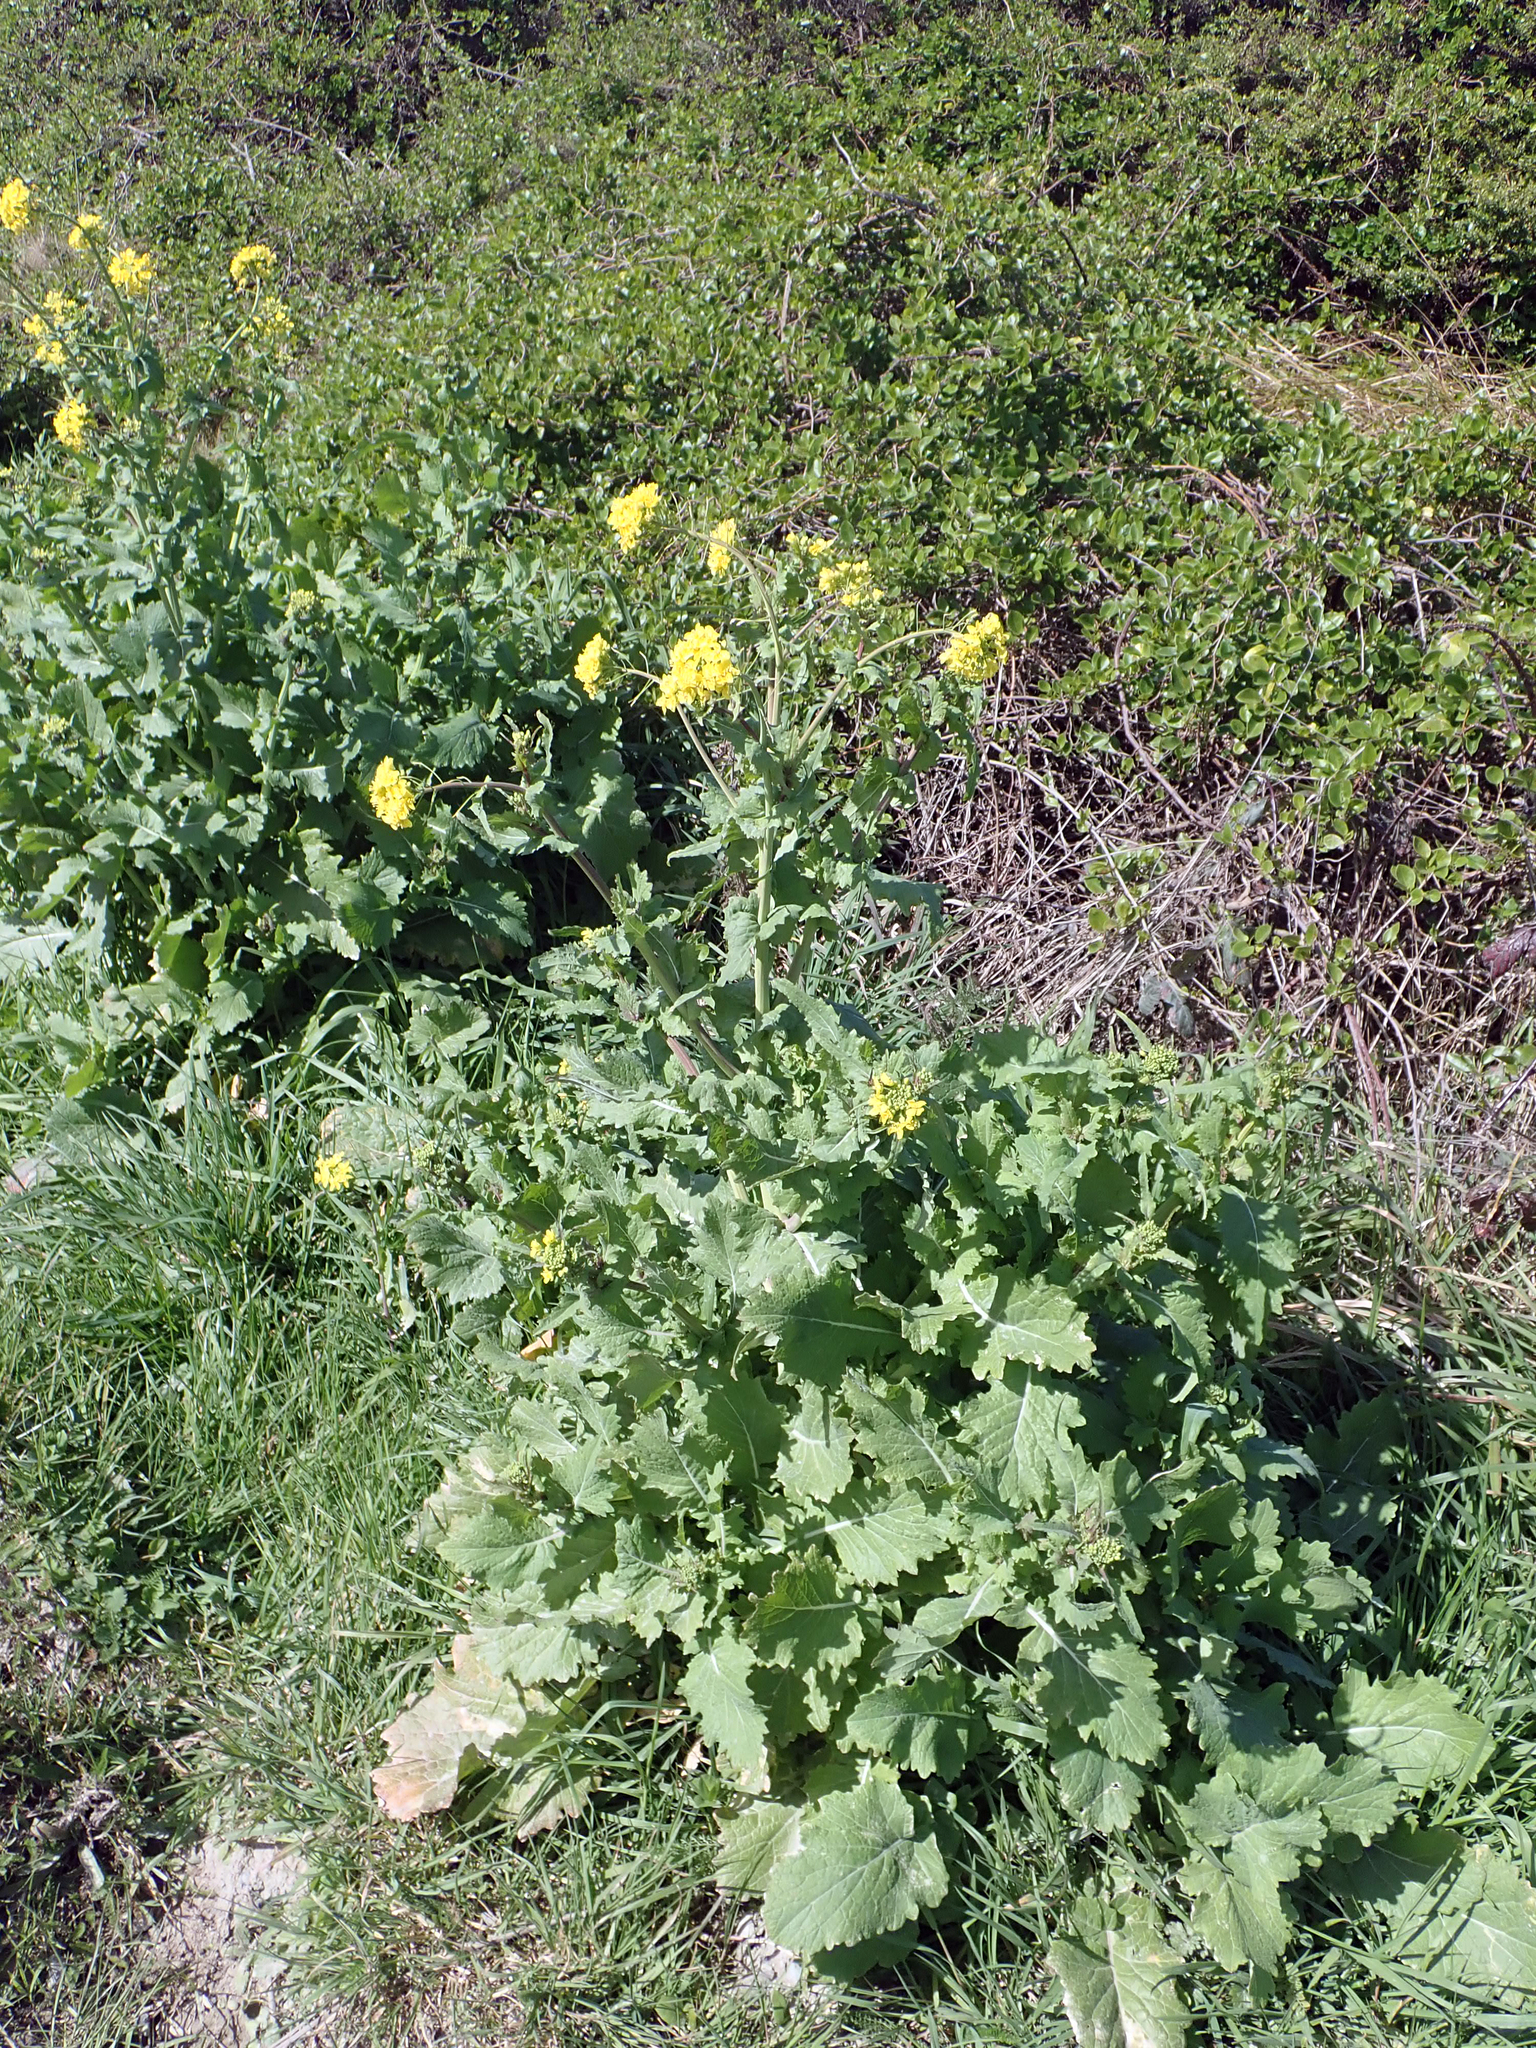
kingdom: Plantae
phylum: Tracheophyta
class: Magnoliopsida
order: Brassicales
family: Brassicaceae
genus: Brassica
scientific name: Brassica napus
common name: Rape
